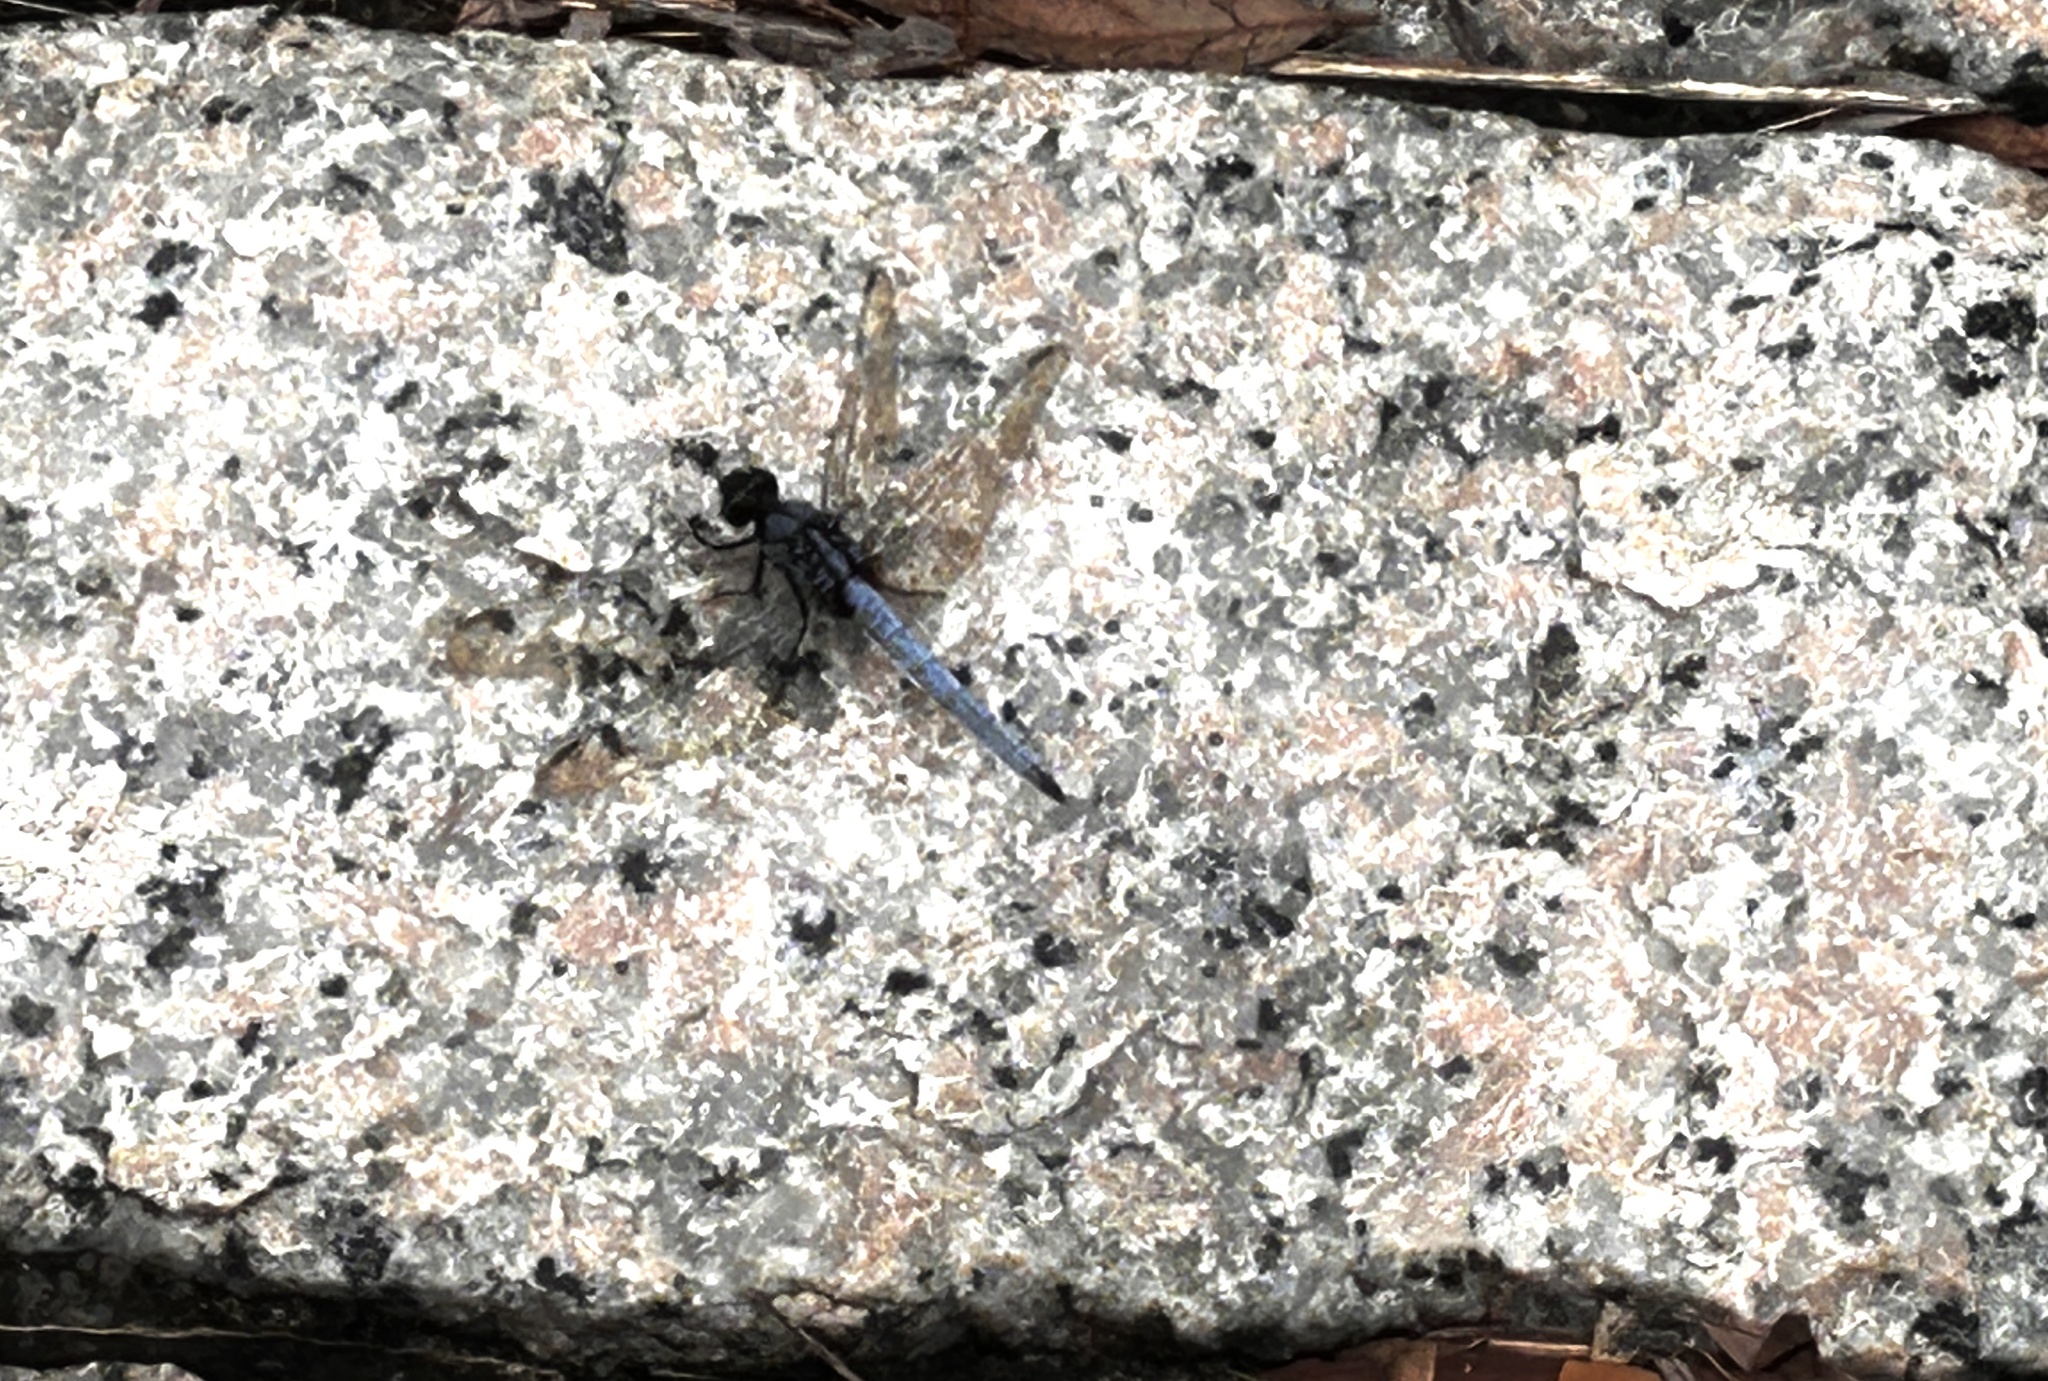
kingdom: Animalia
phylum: Arthropoda
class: Insecta
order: Odonata
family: Libellulidae
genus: Orthetrum
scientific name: Orthetrum glaucum
